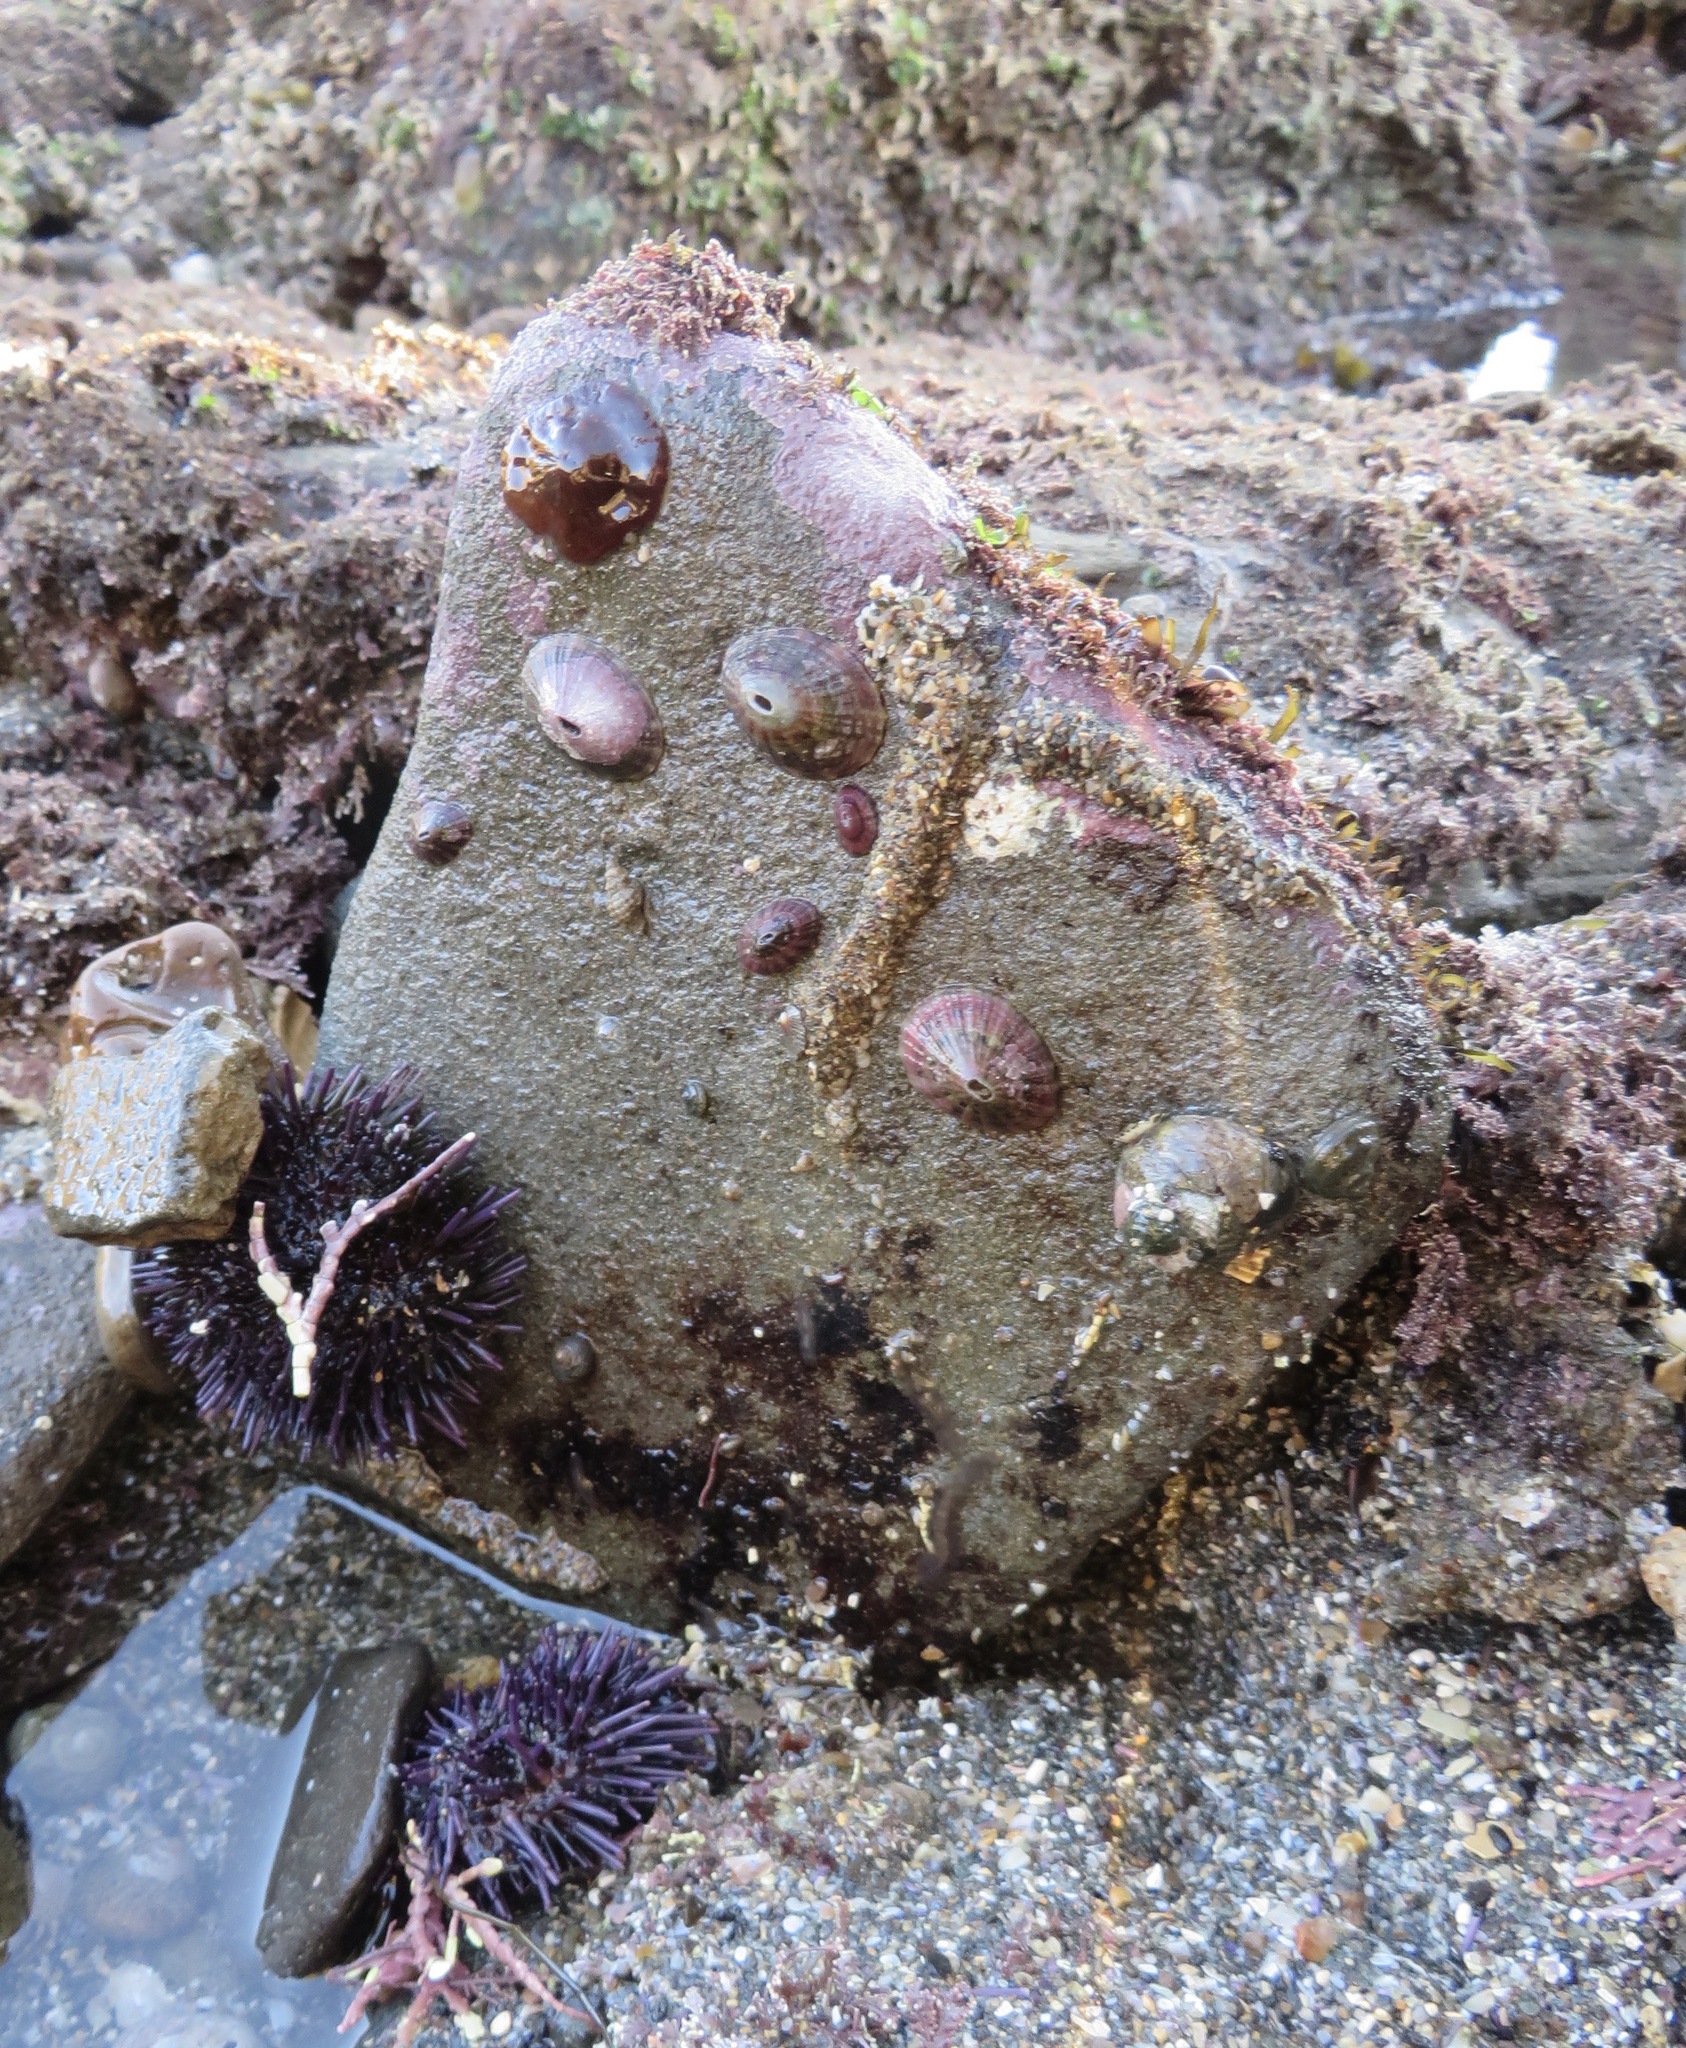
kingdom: Animalia
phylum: Echinodermata
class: Echinoidea
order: Camarodonta
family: Strongylocentrotidae
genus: Strongylocentrotus
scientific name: Strongylocentrotus purpuratus
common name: Purple sea urchin
